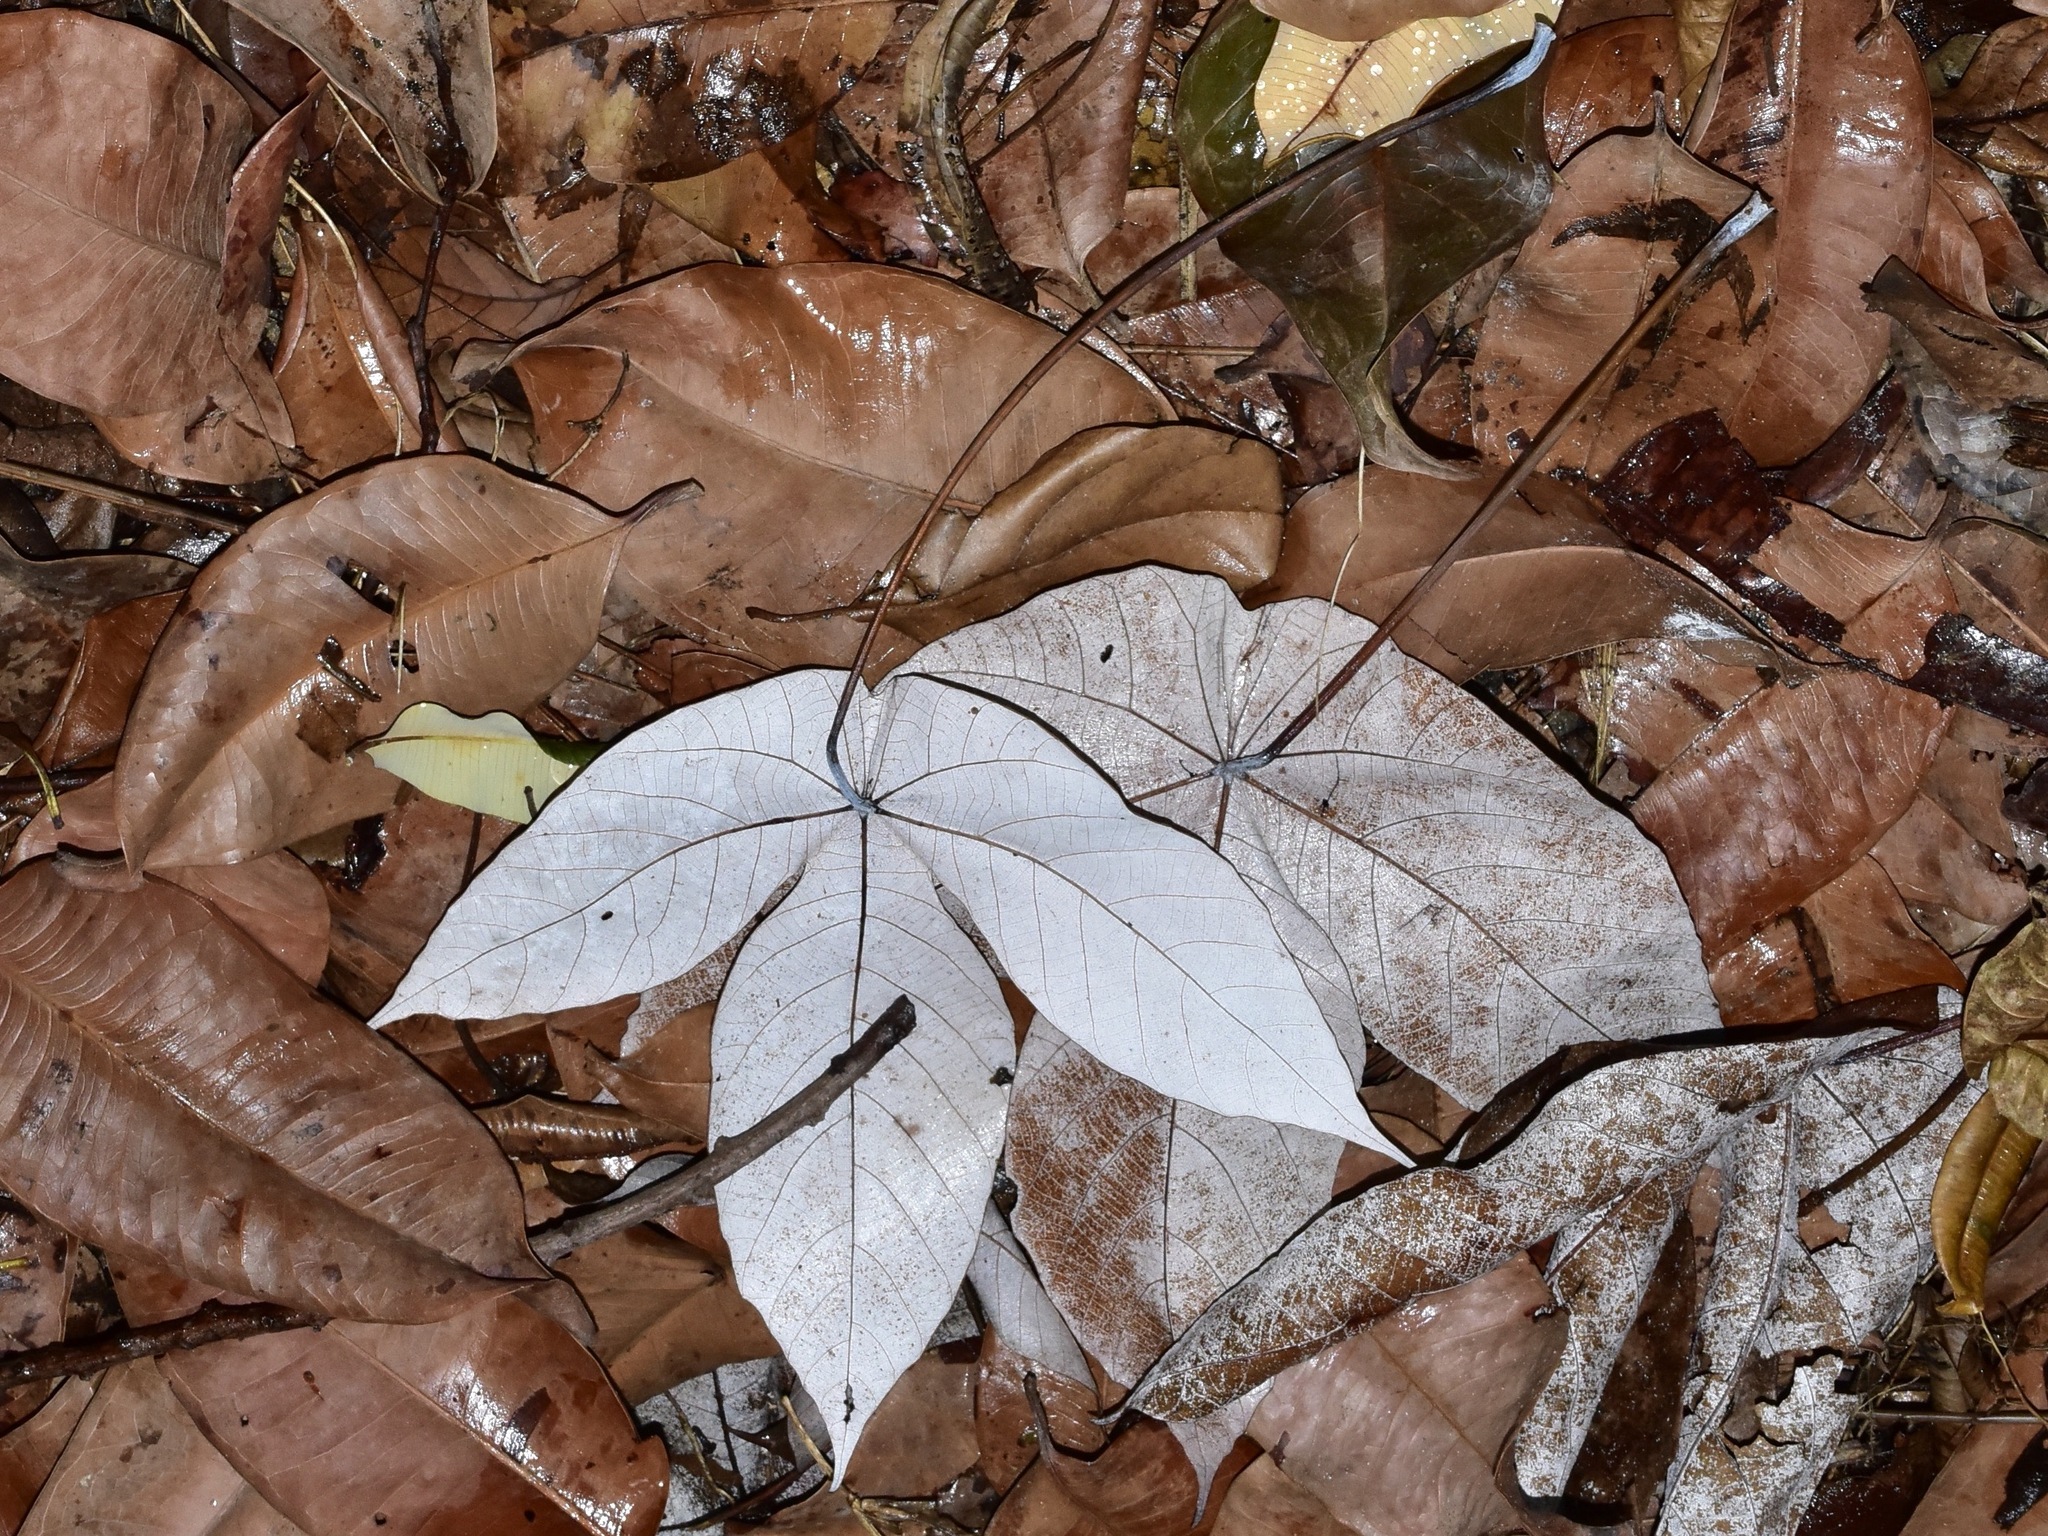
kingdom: Plantae
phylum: Tracheophyta
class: Magnoliopsida
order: Malpighiales
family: Euphorbiaceae
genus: Macaranga
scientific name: Macaranga hypoleuca
